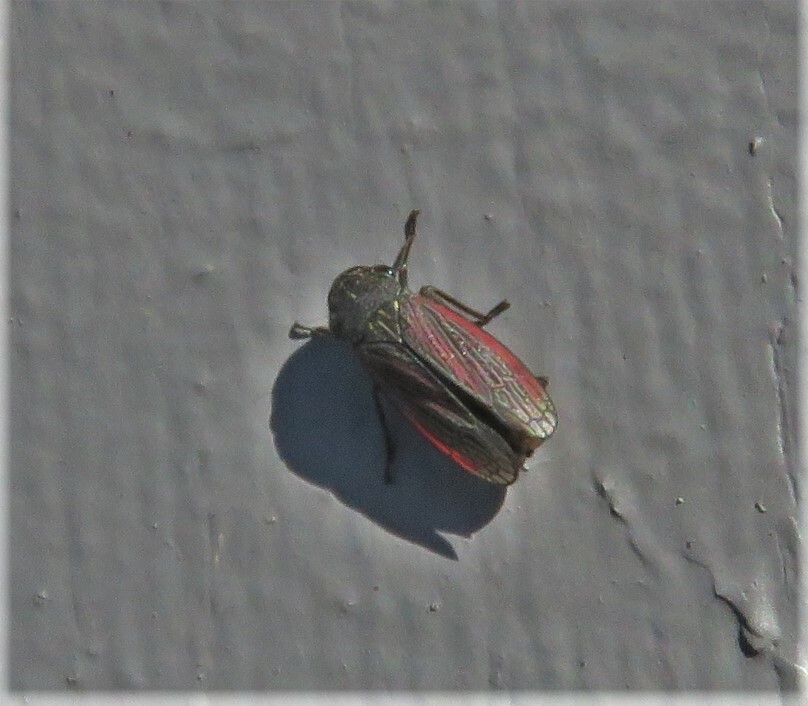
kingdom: Animalia
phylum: Arthropoda
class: Insecta
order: Hemiptera
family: Cicadellidae
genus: Cuerna
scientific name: Cuerna striata
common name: Striped leafhopper
